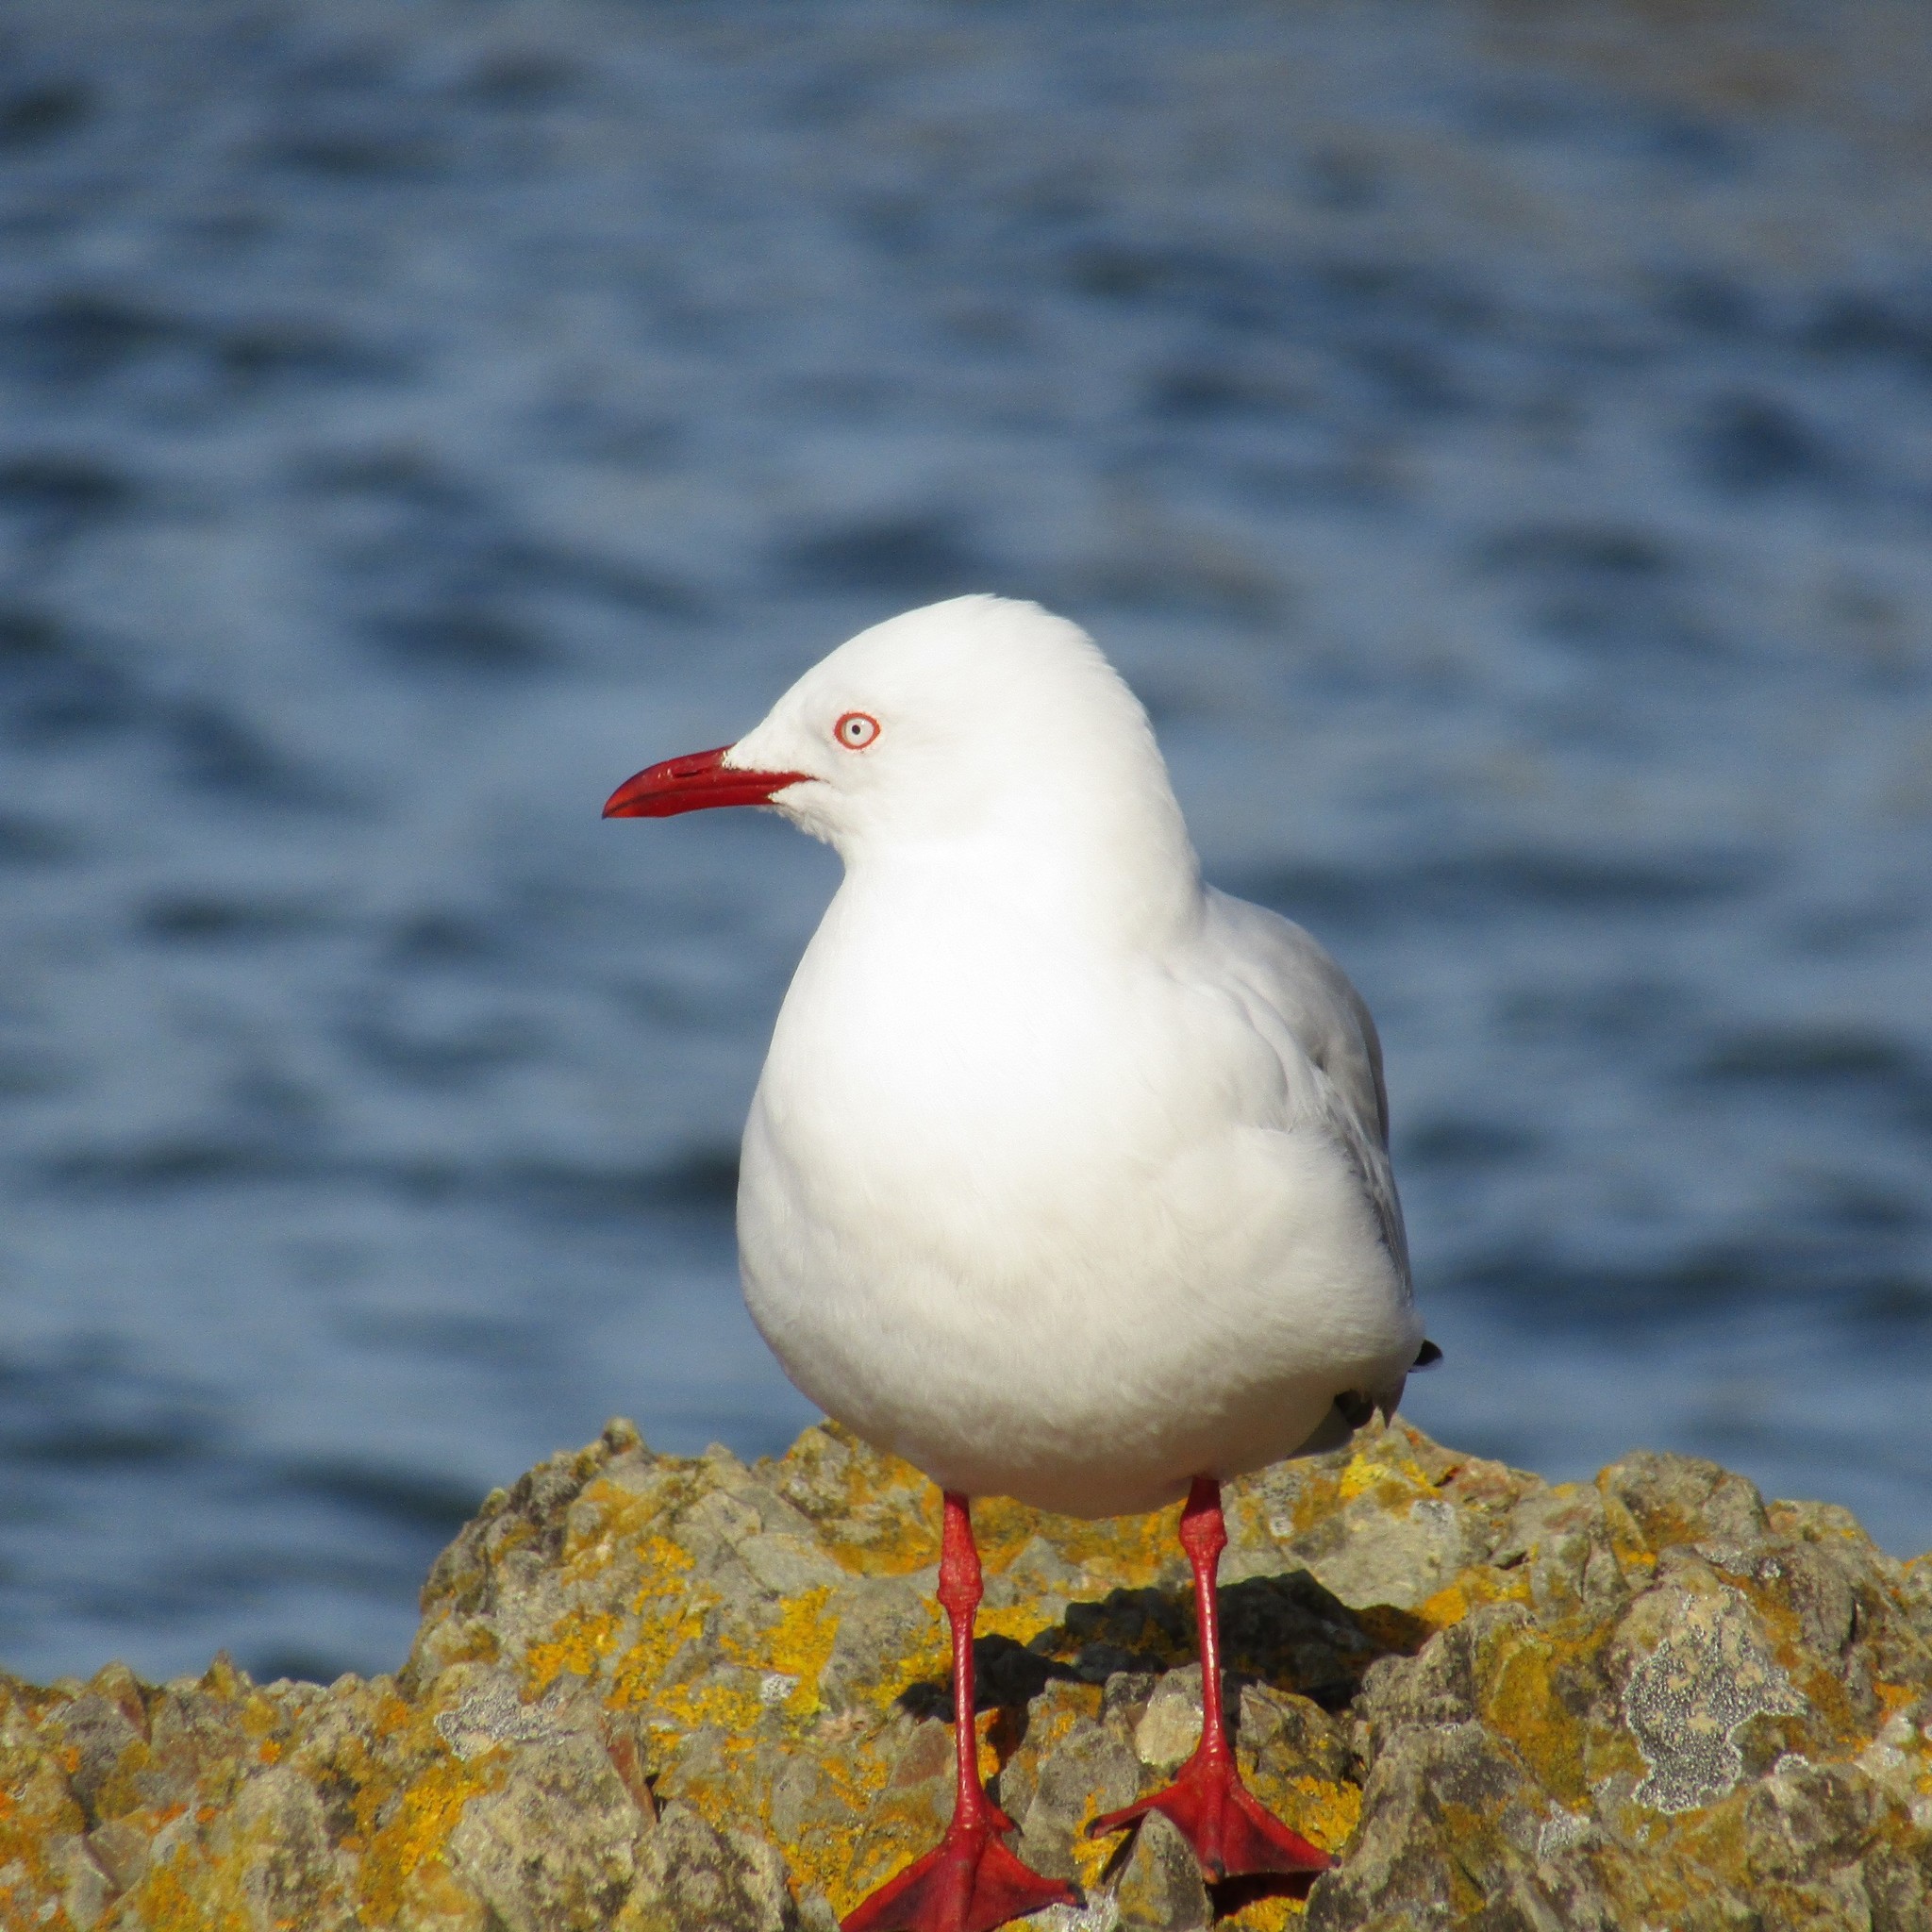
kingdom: Animalia
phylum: Chordata
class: Aves
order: Charadriiformes
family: Laridae
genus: Chroicocephalus
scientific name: Chroicocephalus novaehollandiae
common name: Silver gull
